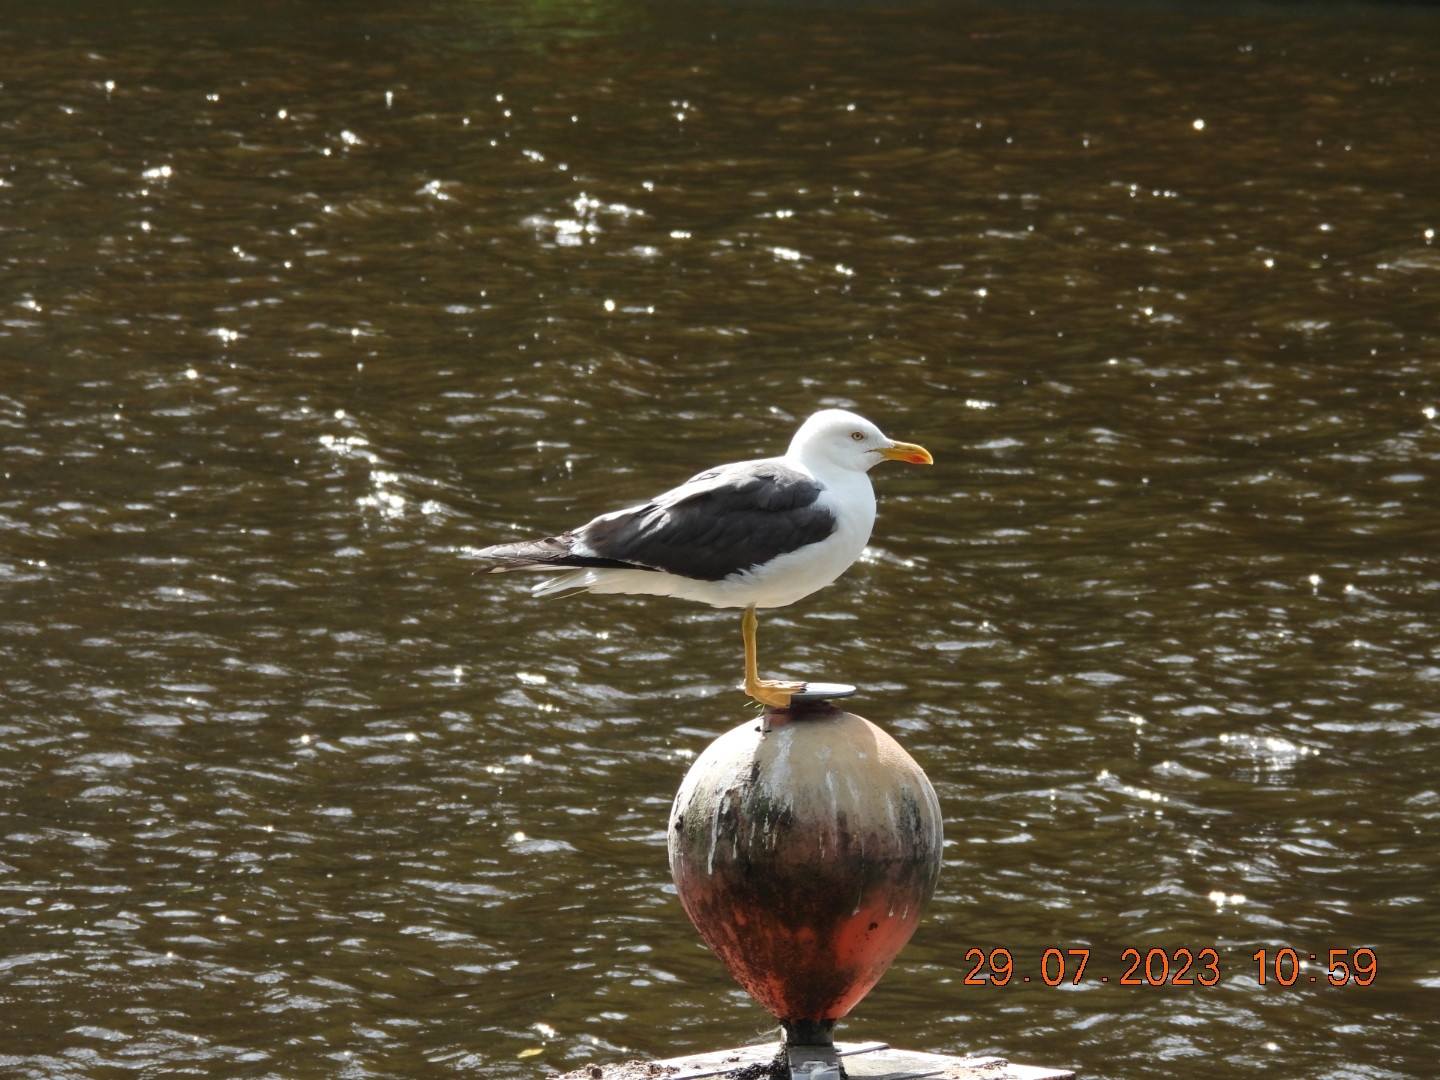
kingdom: Animalia
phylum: Chordata
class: Aves
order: Charadriiformes
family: Laridae
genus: Larus
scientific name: Larus fuscus
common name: Lesser black-backed gull
